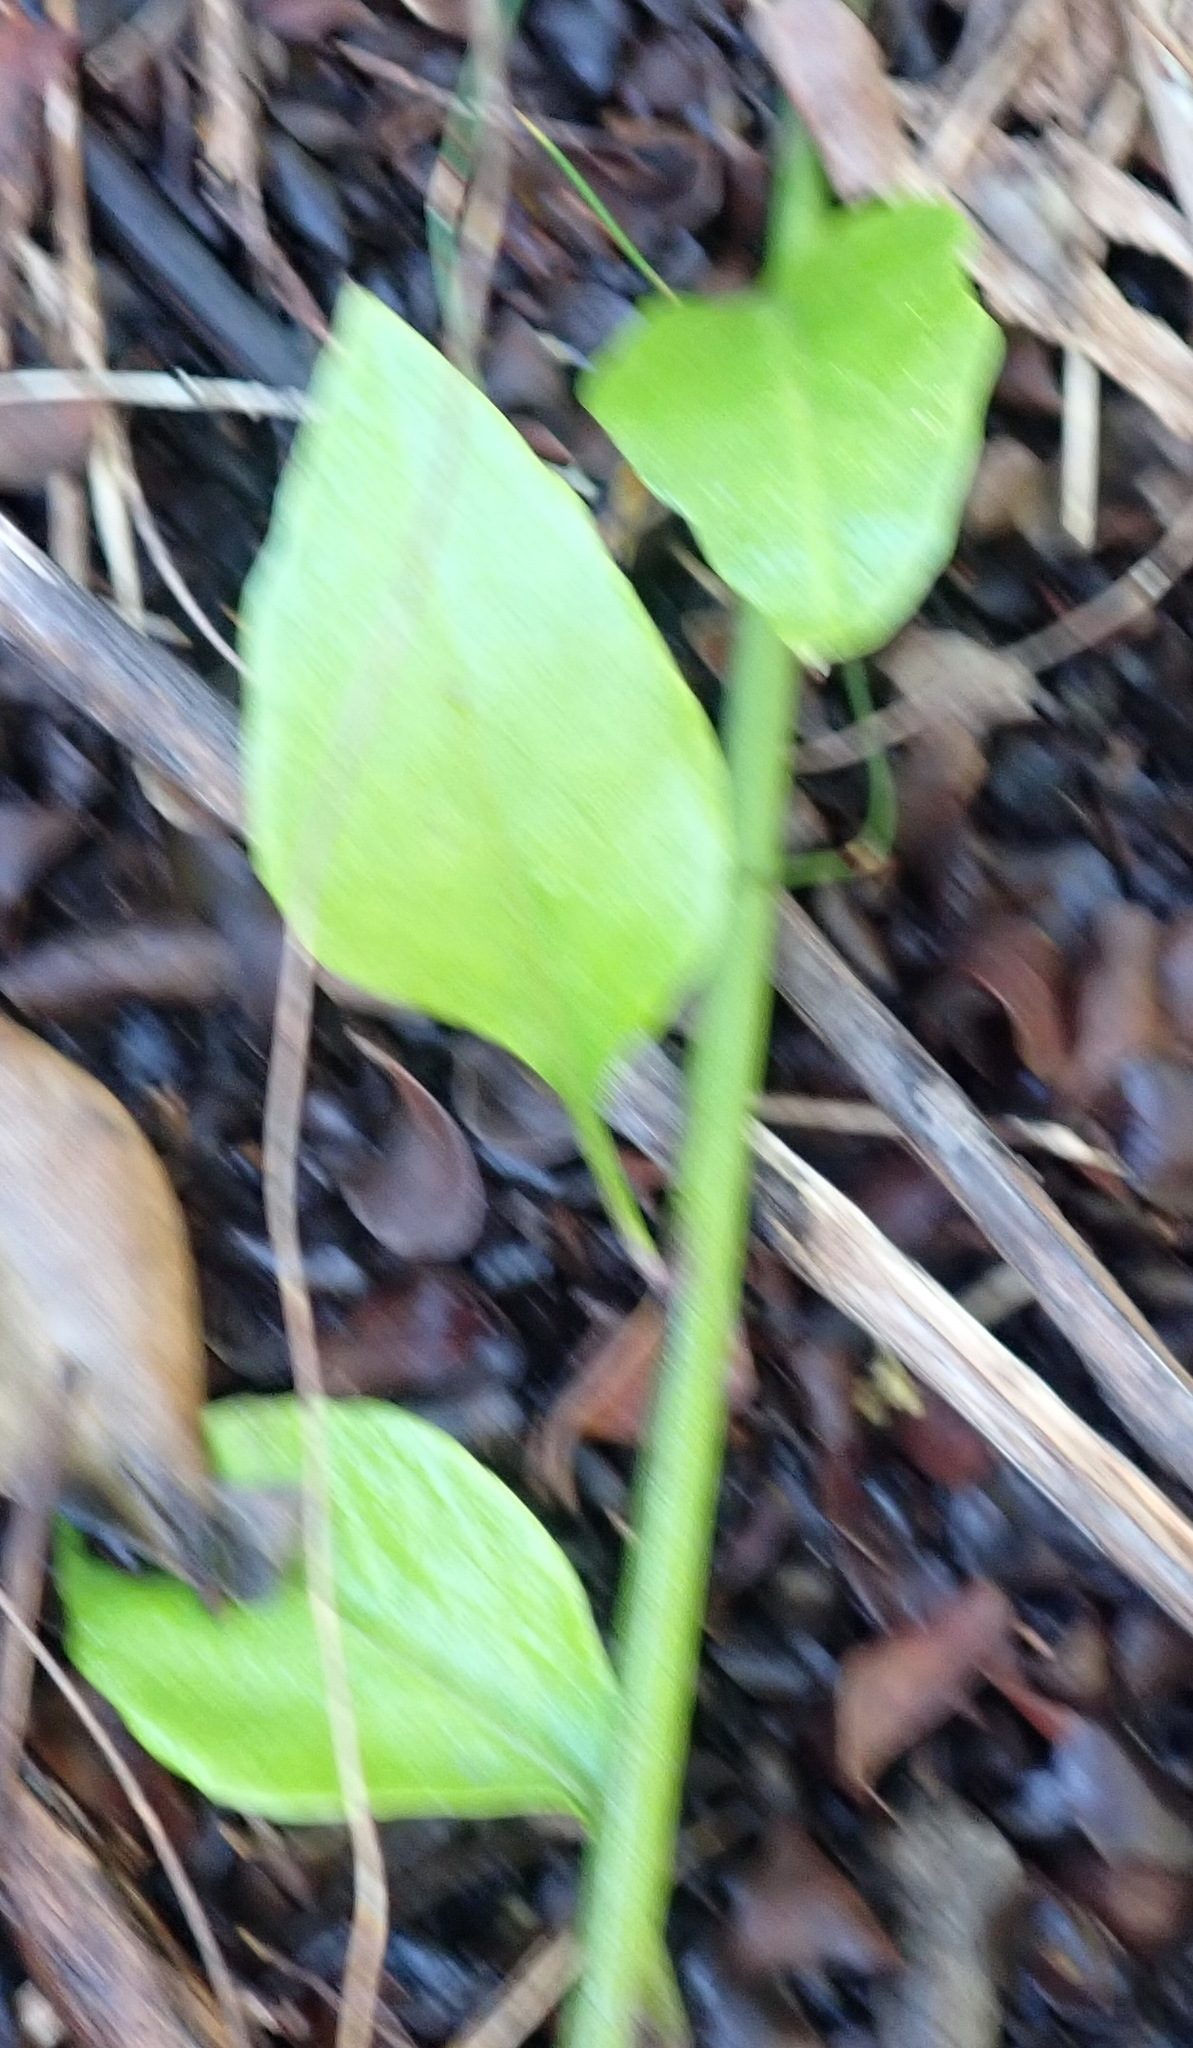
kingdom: Plantae
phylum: Tracheophyta
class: Magnoliopsida
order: Solanales
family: Solanaceae
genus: Solanum
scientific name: Solanum africanum
